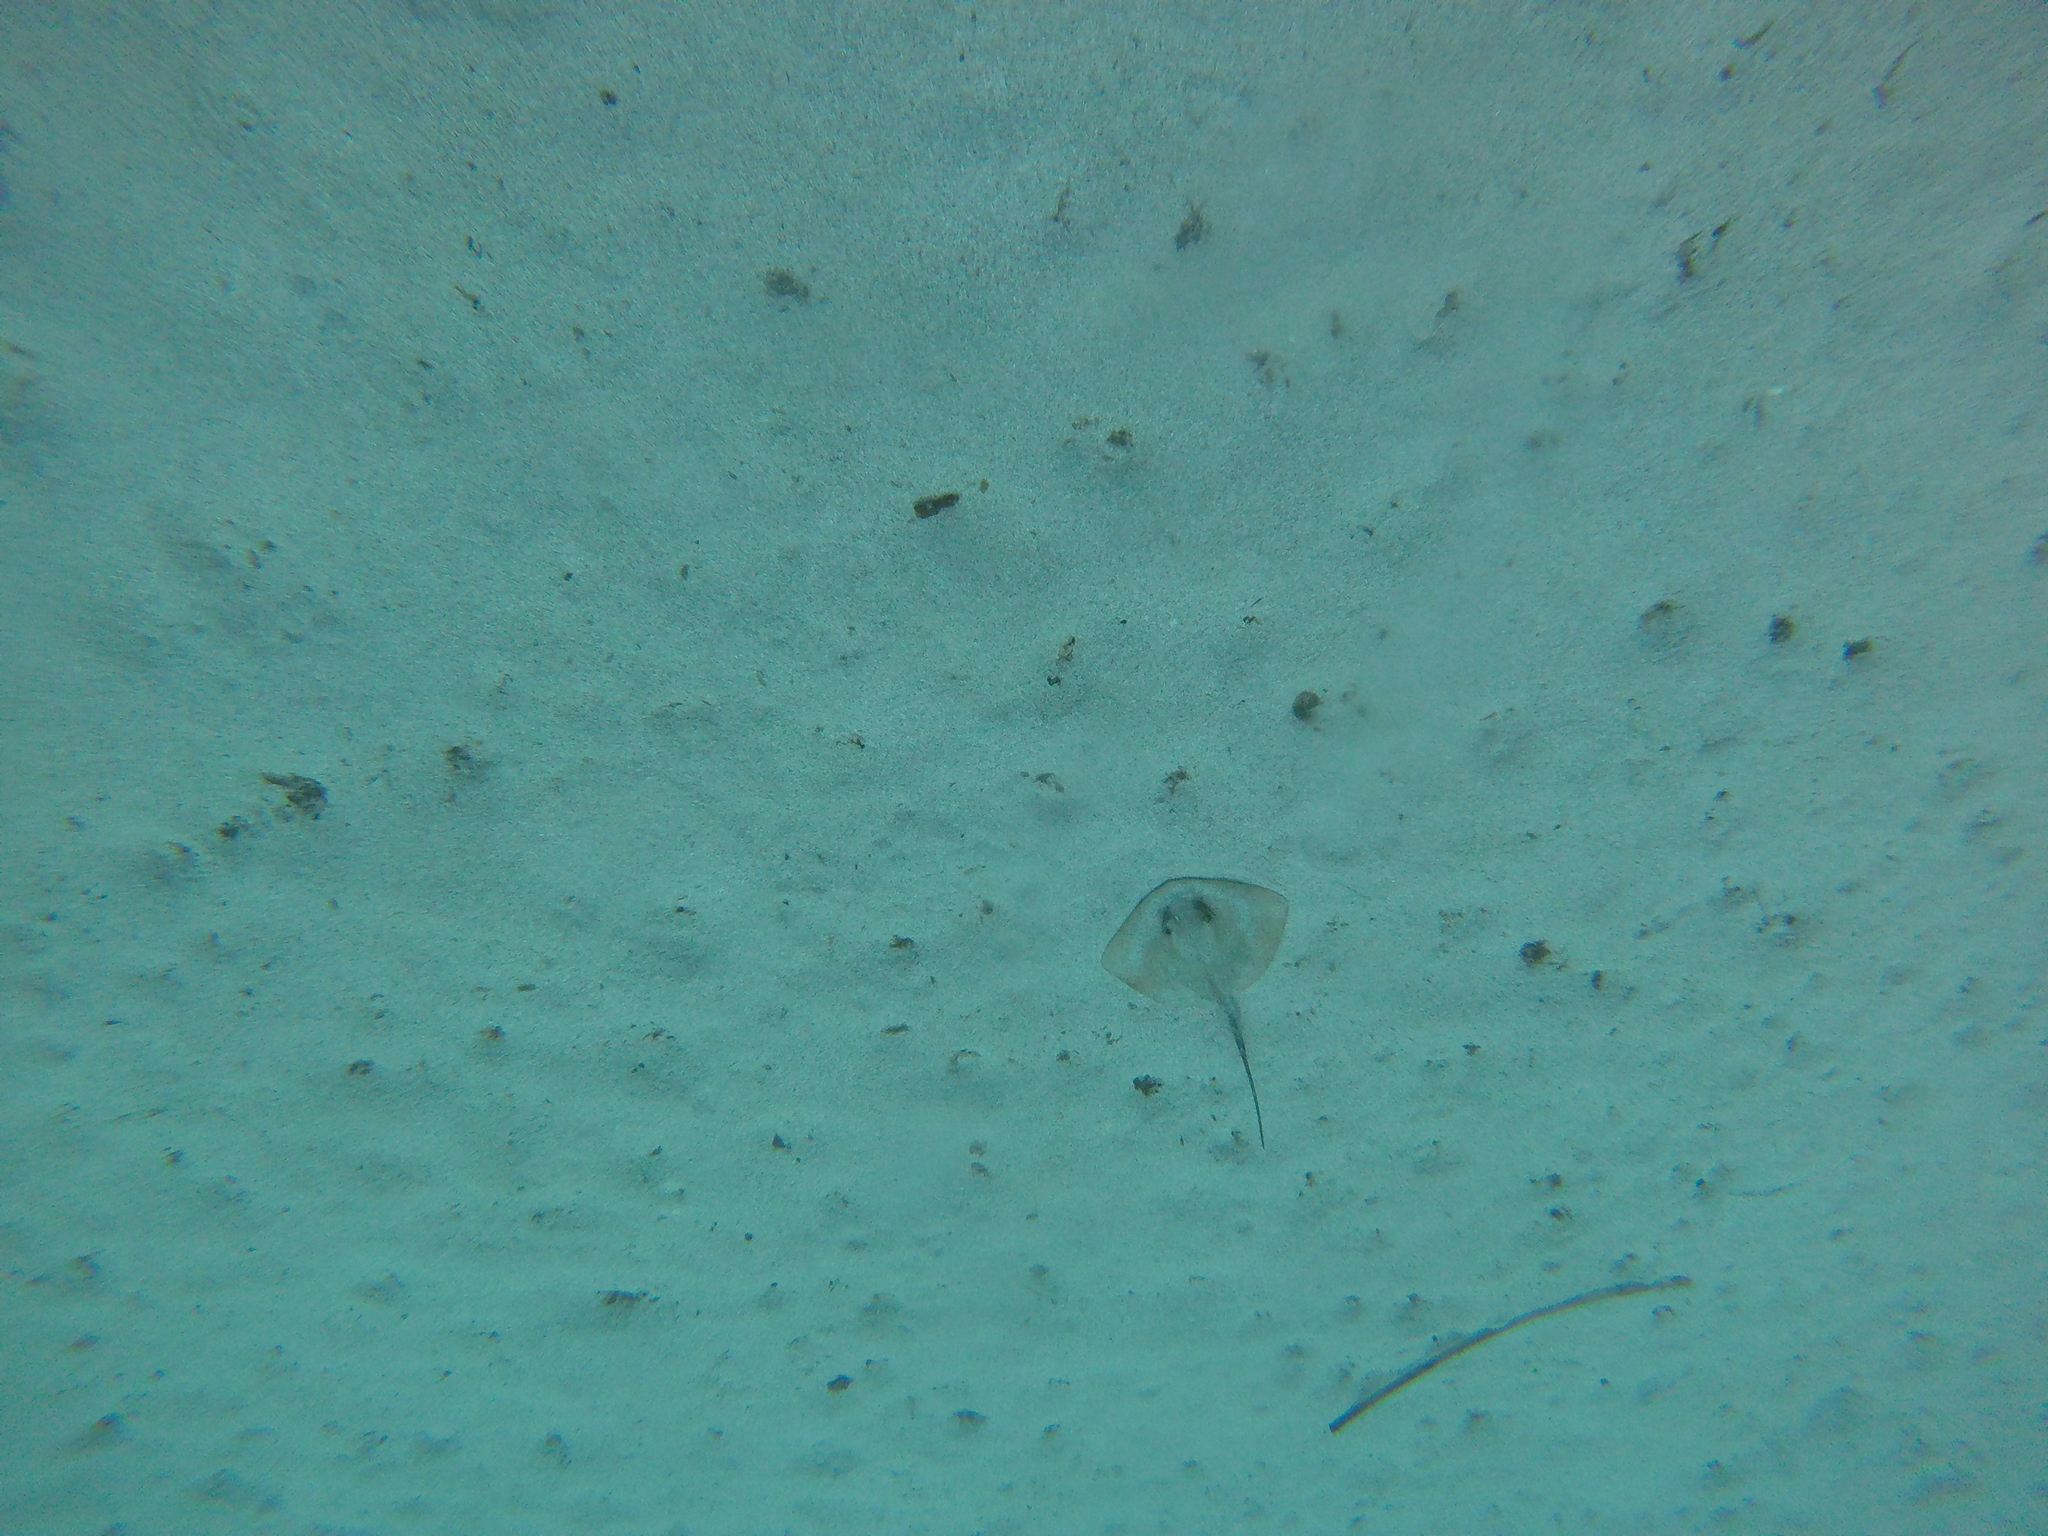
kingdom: Animalia
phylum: Chordata
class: Elasmobranchii
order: Myliobatiformes
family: Dasyatidae
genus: Dasyatis
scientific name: Dasyatis pastinaca
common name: Common stingray
